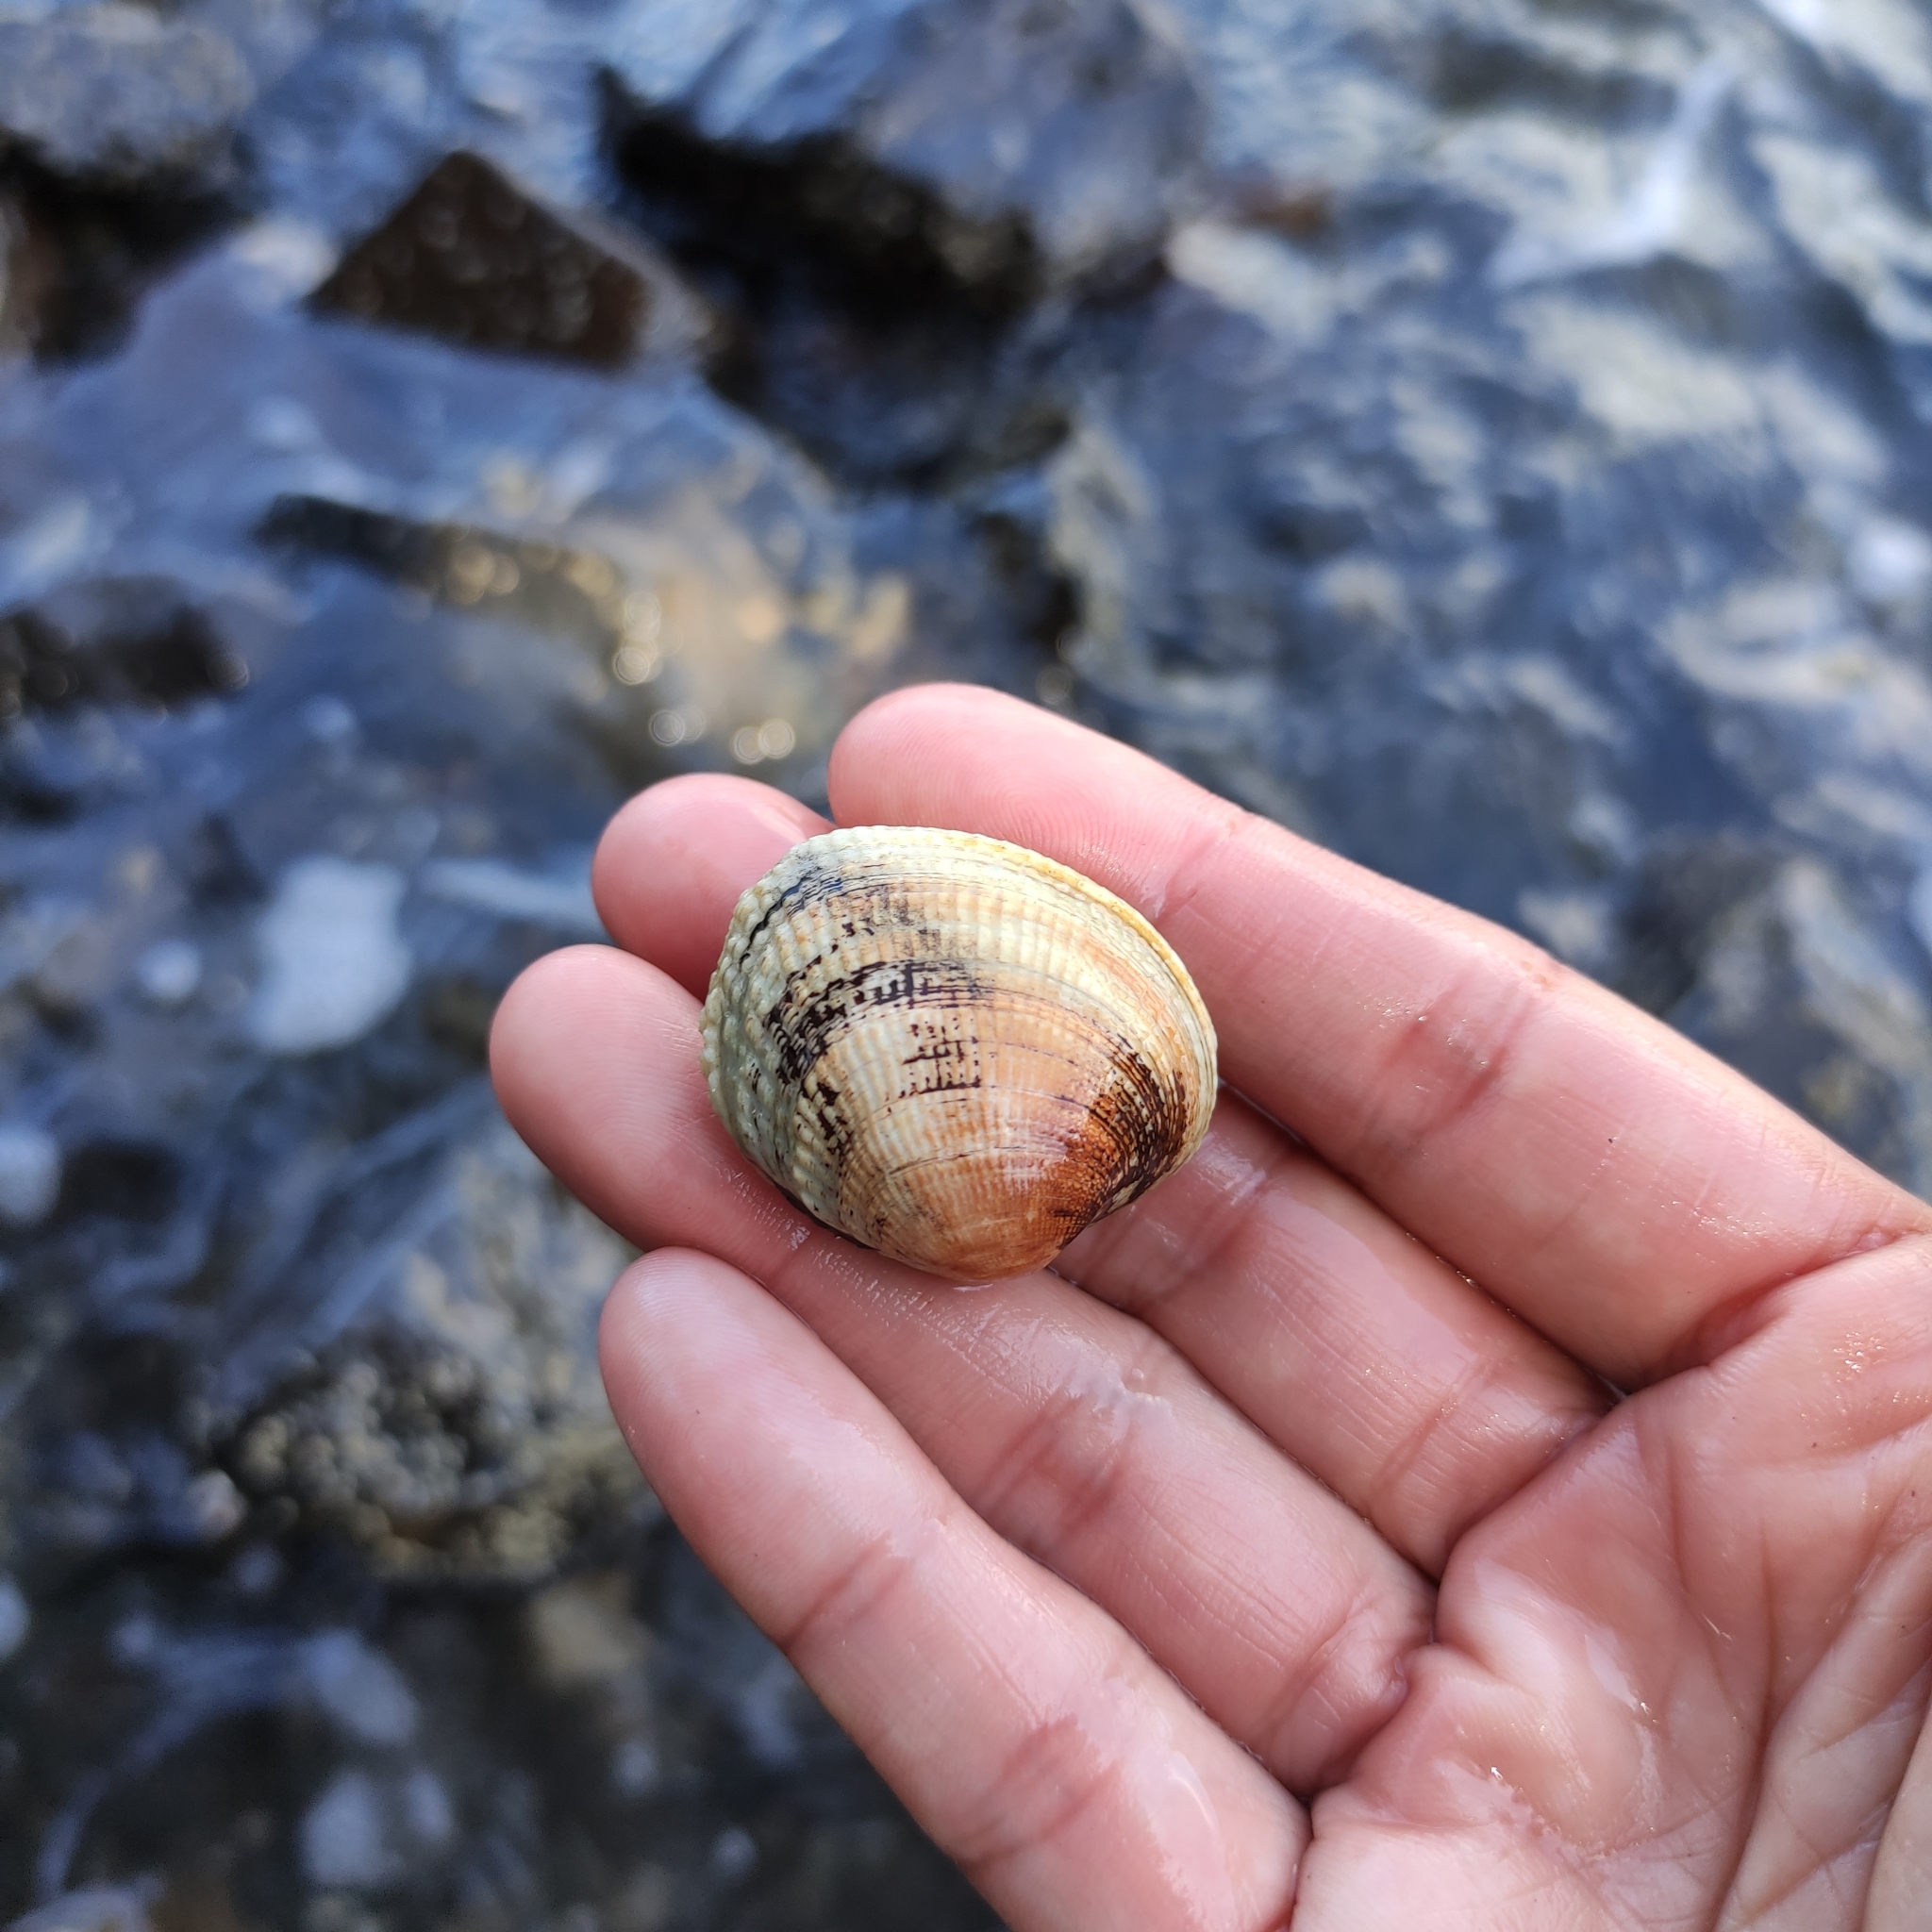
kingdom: Animalia
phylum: Mollusca
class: Bivalvia
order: Venerida
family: Veneridae
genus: Leukoma
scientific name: Leukoma crassicosta
